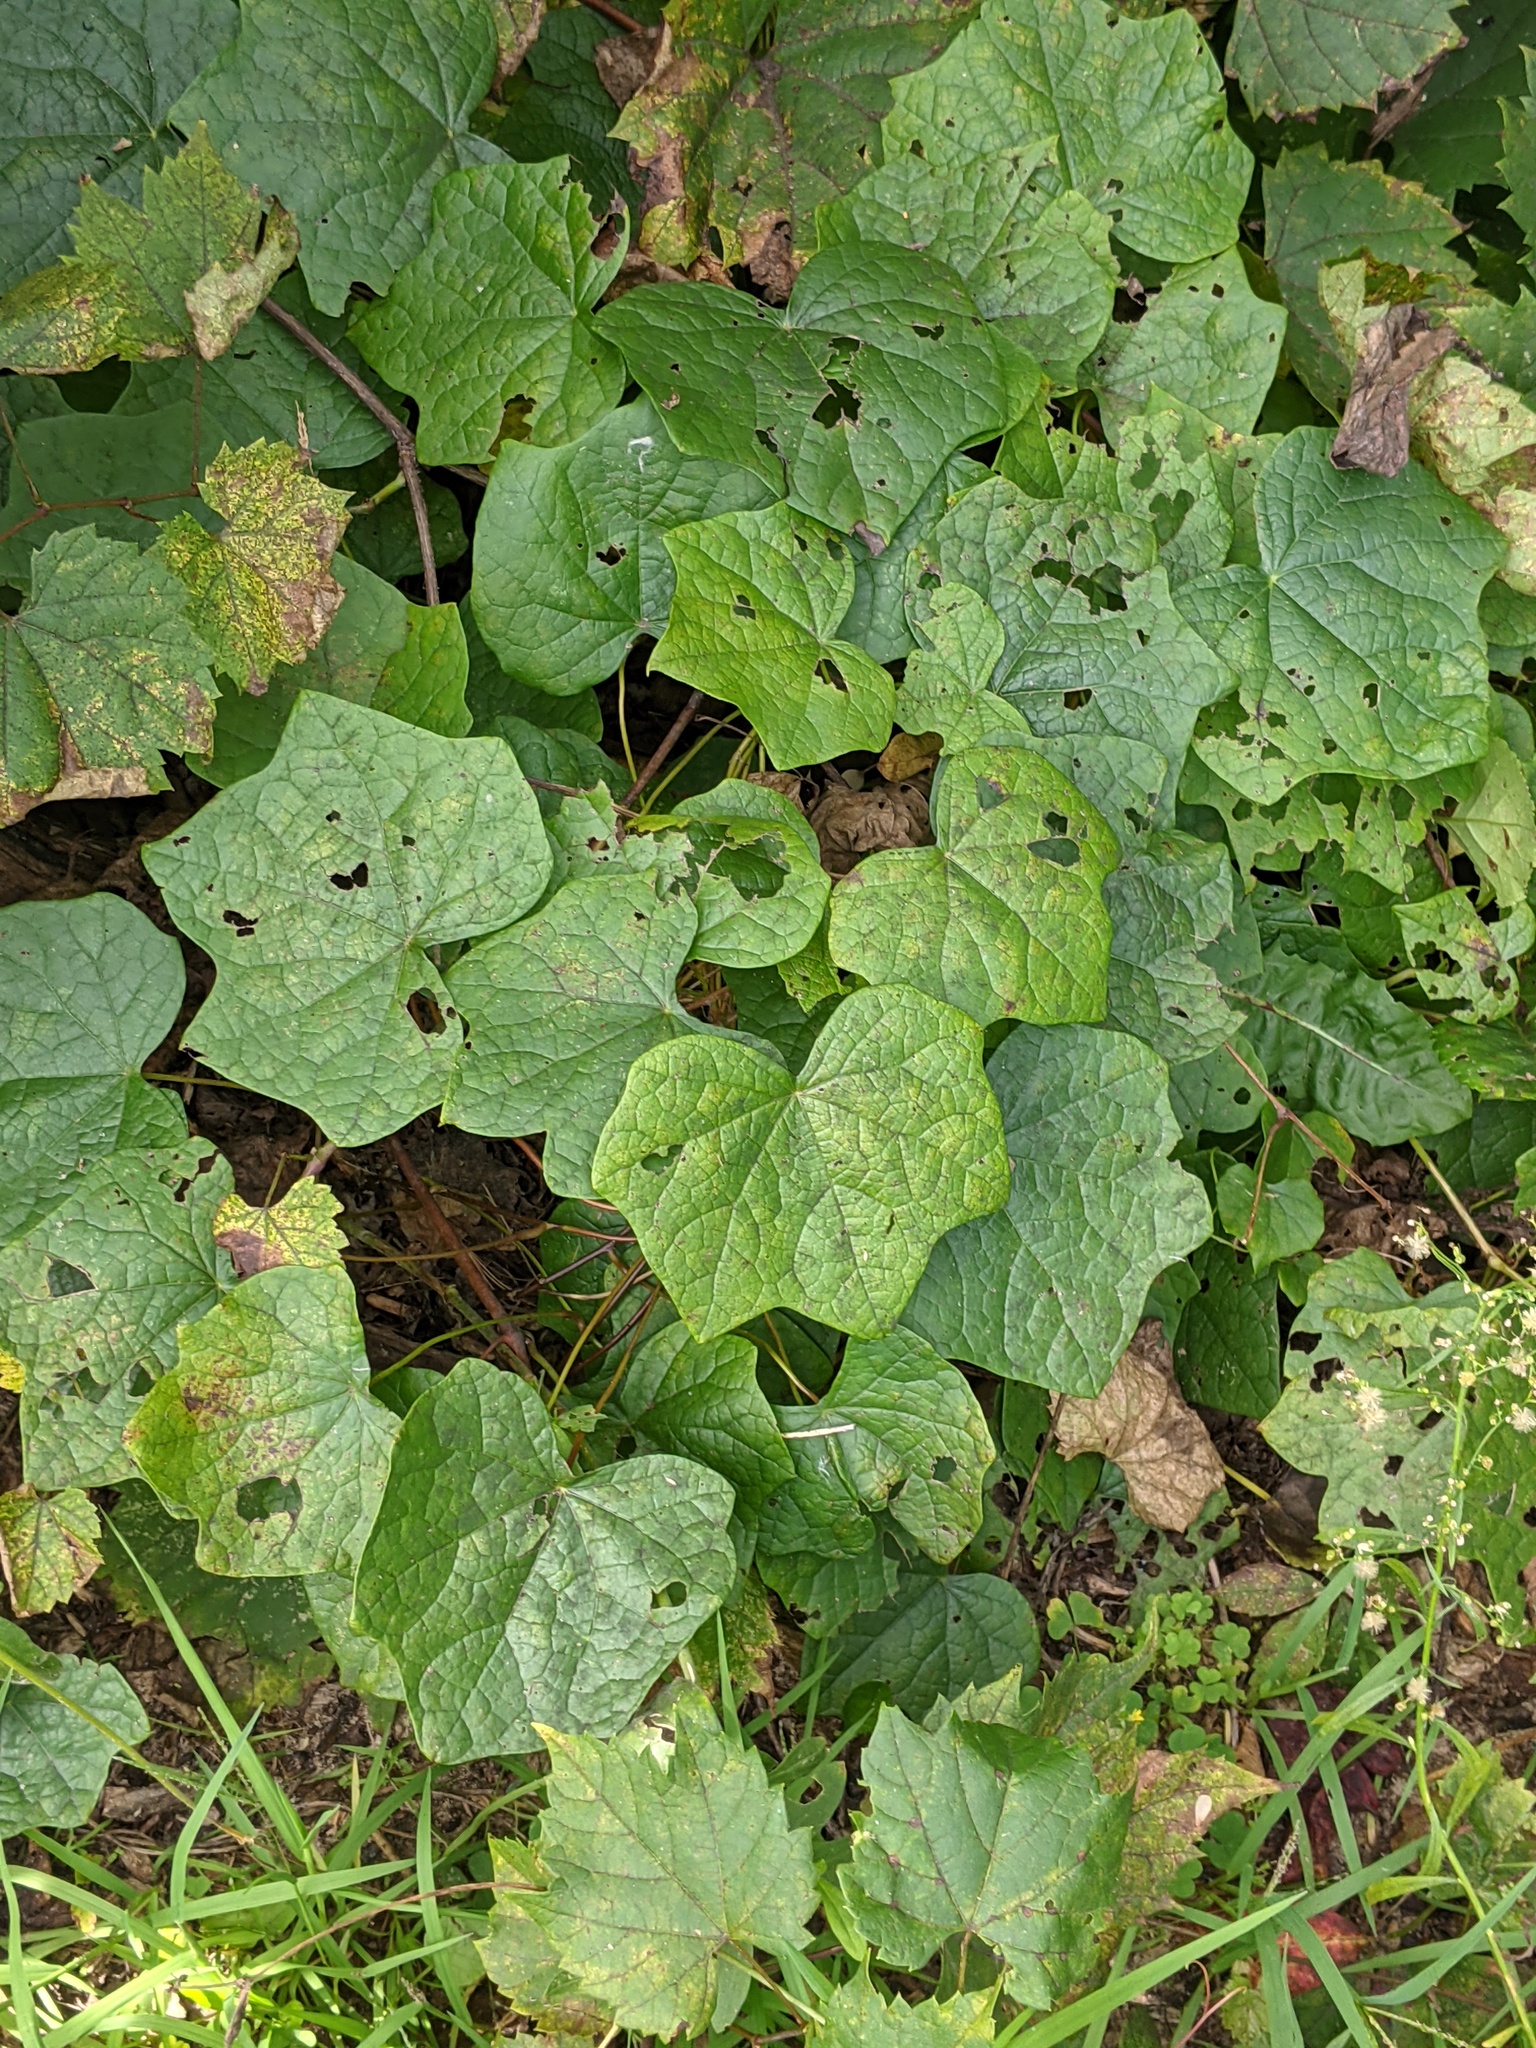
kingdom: Plantae
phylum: Tracheophyta
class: Magnoliopsida
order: Ranunculales
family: Menispermaceae
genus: Menispermum
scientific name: Menispermum canadense
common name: Moonseed
